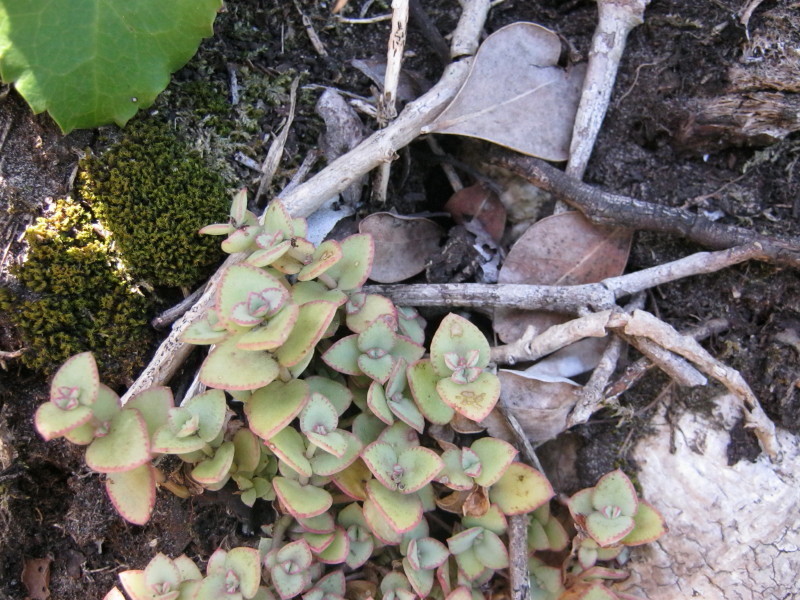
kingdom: Plantae
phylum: Tracheophyta
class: Magnoliopsida
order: Saxifragales
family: Crassulaceae
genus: Crassula
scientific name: Crassula pellucida
